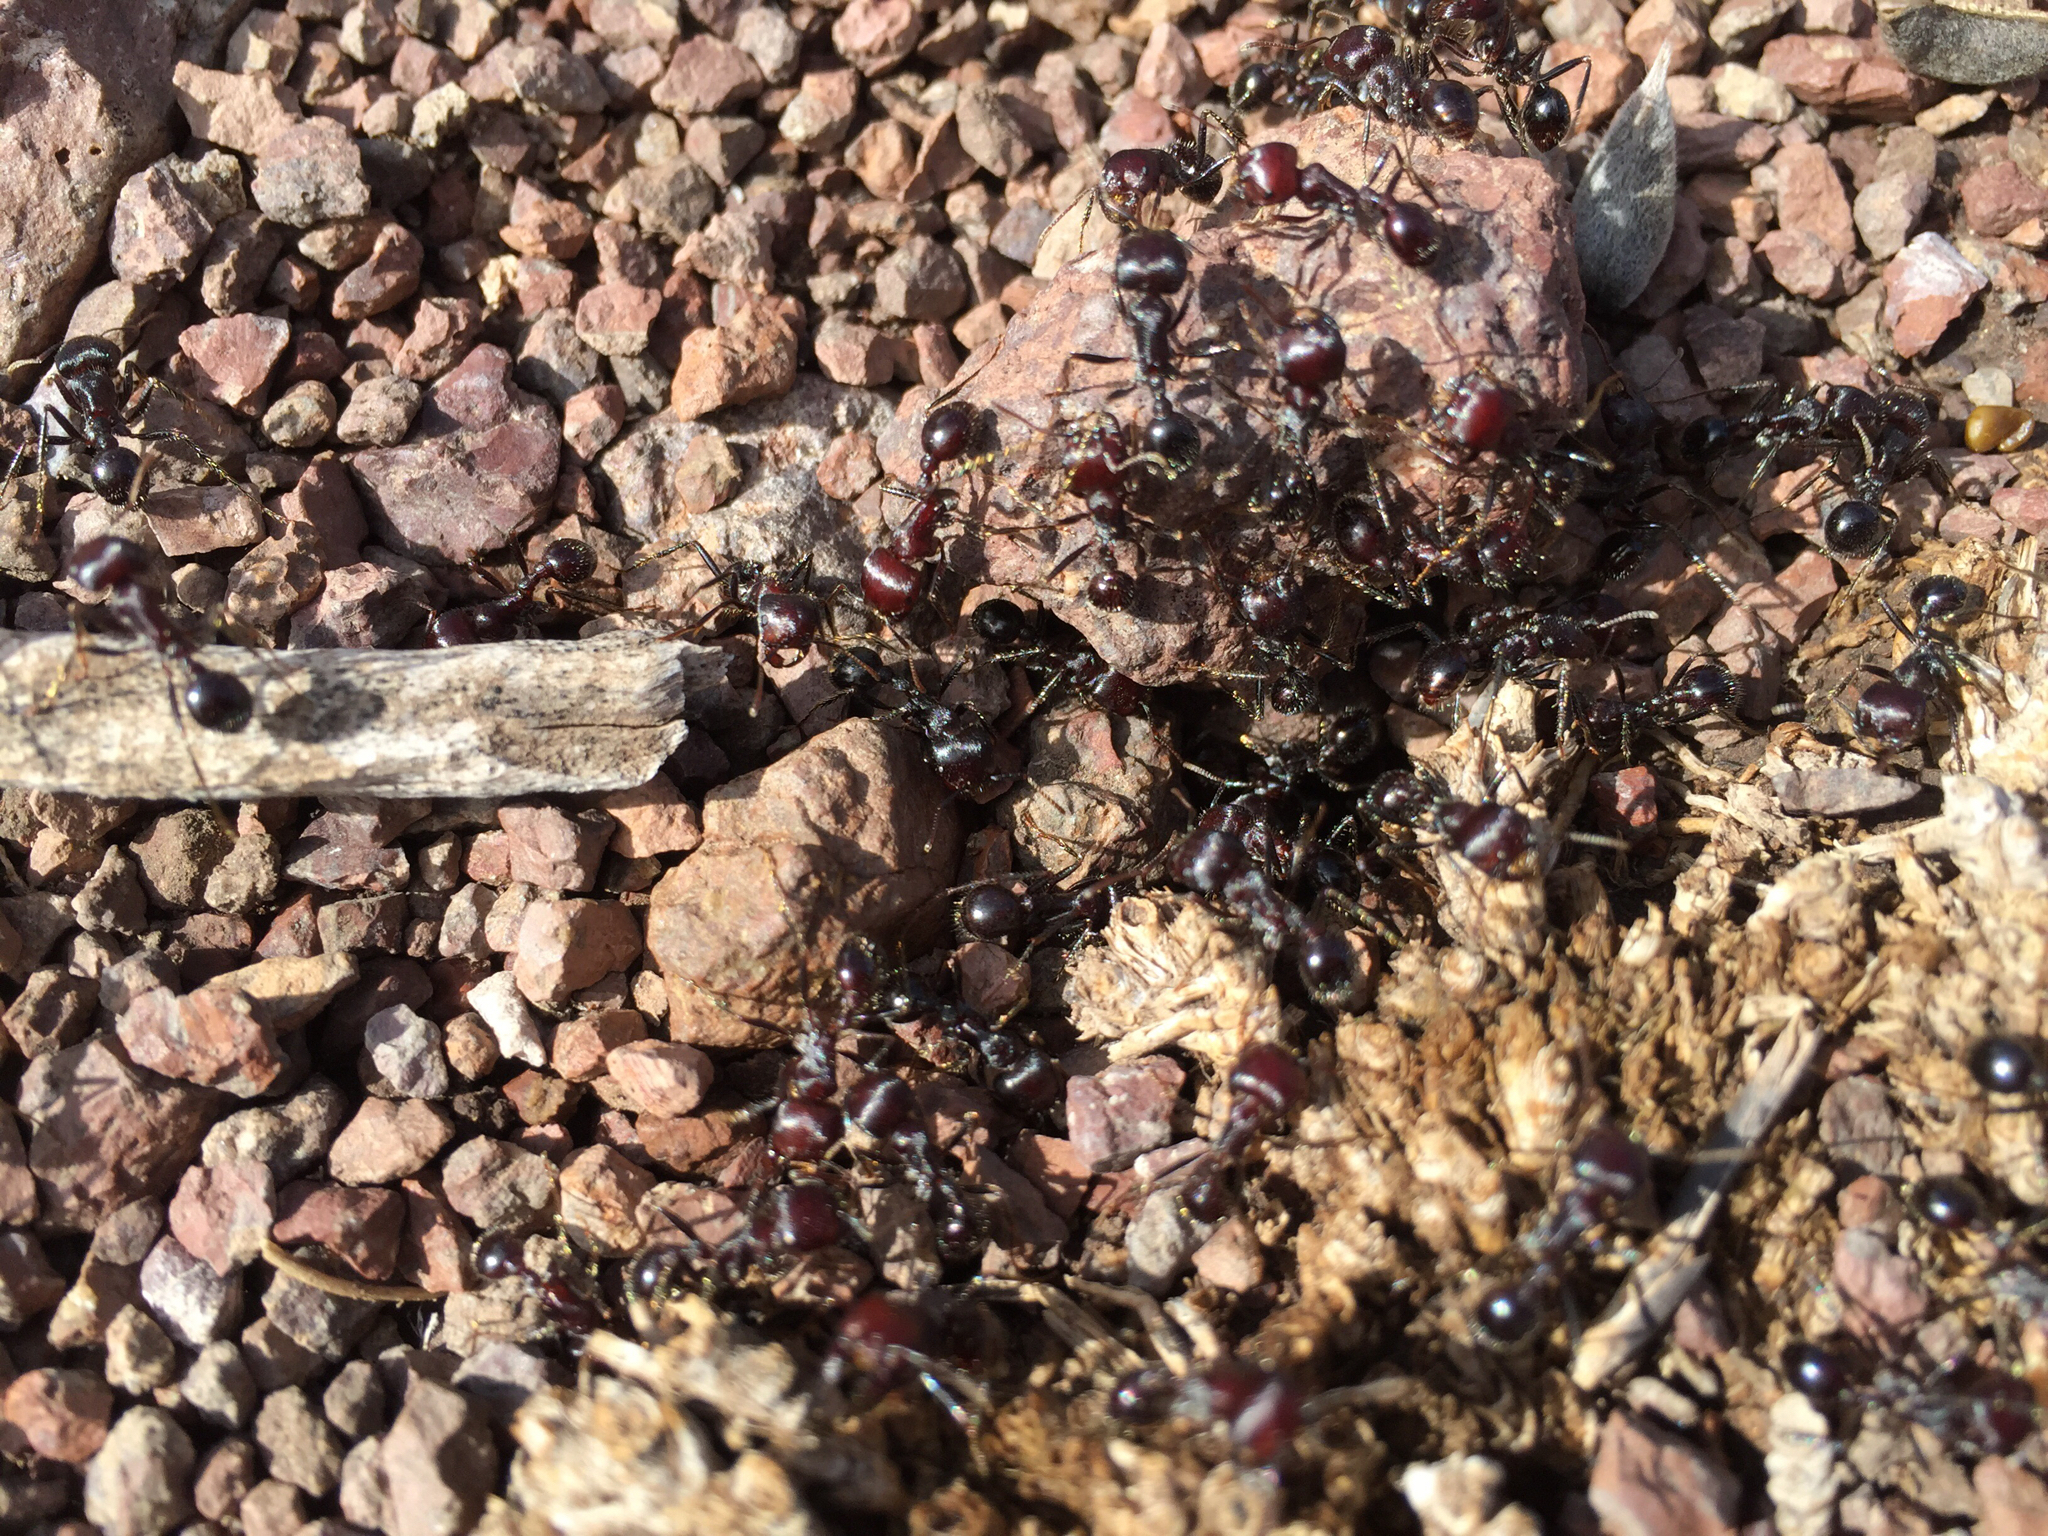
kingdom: Animalia
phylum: Arthropoda
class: Insecta
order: Hymenoptera
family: Formicidae
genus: Pogonomyrmex
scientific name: Pogonomyrmex
